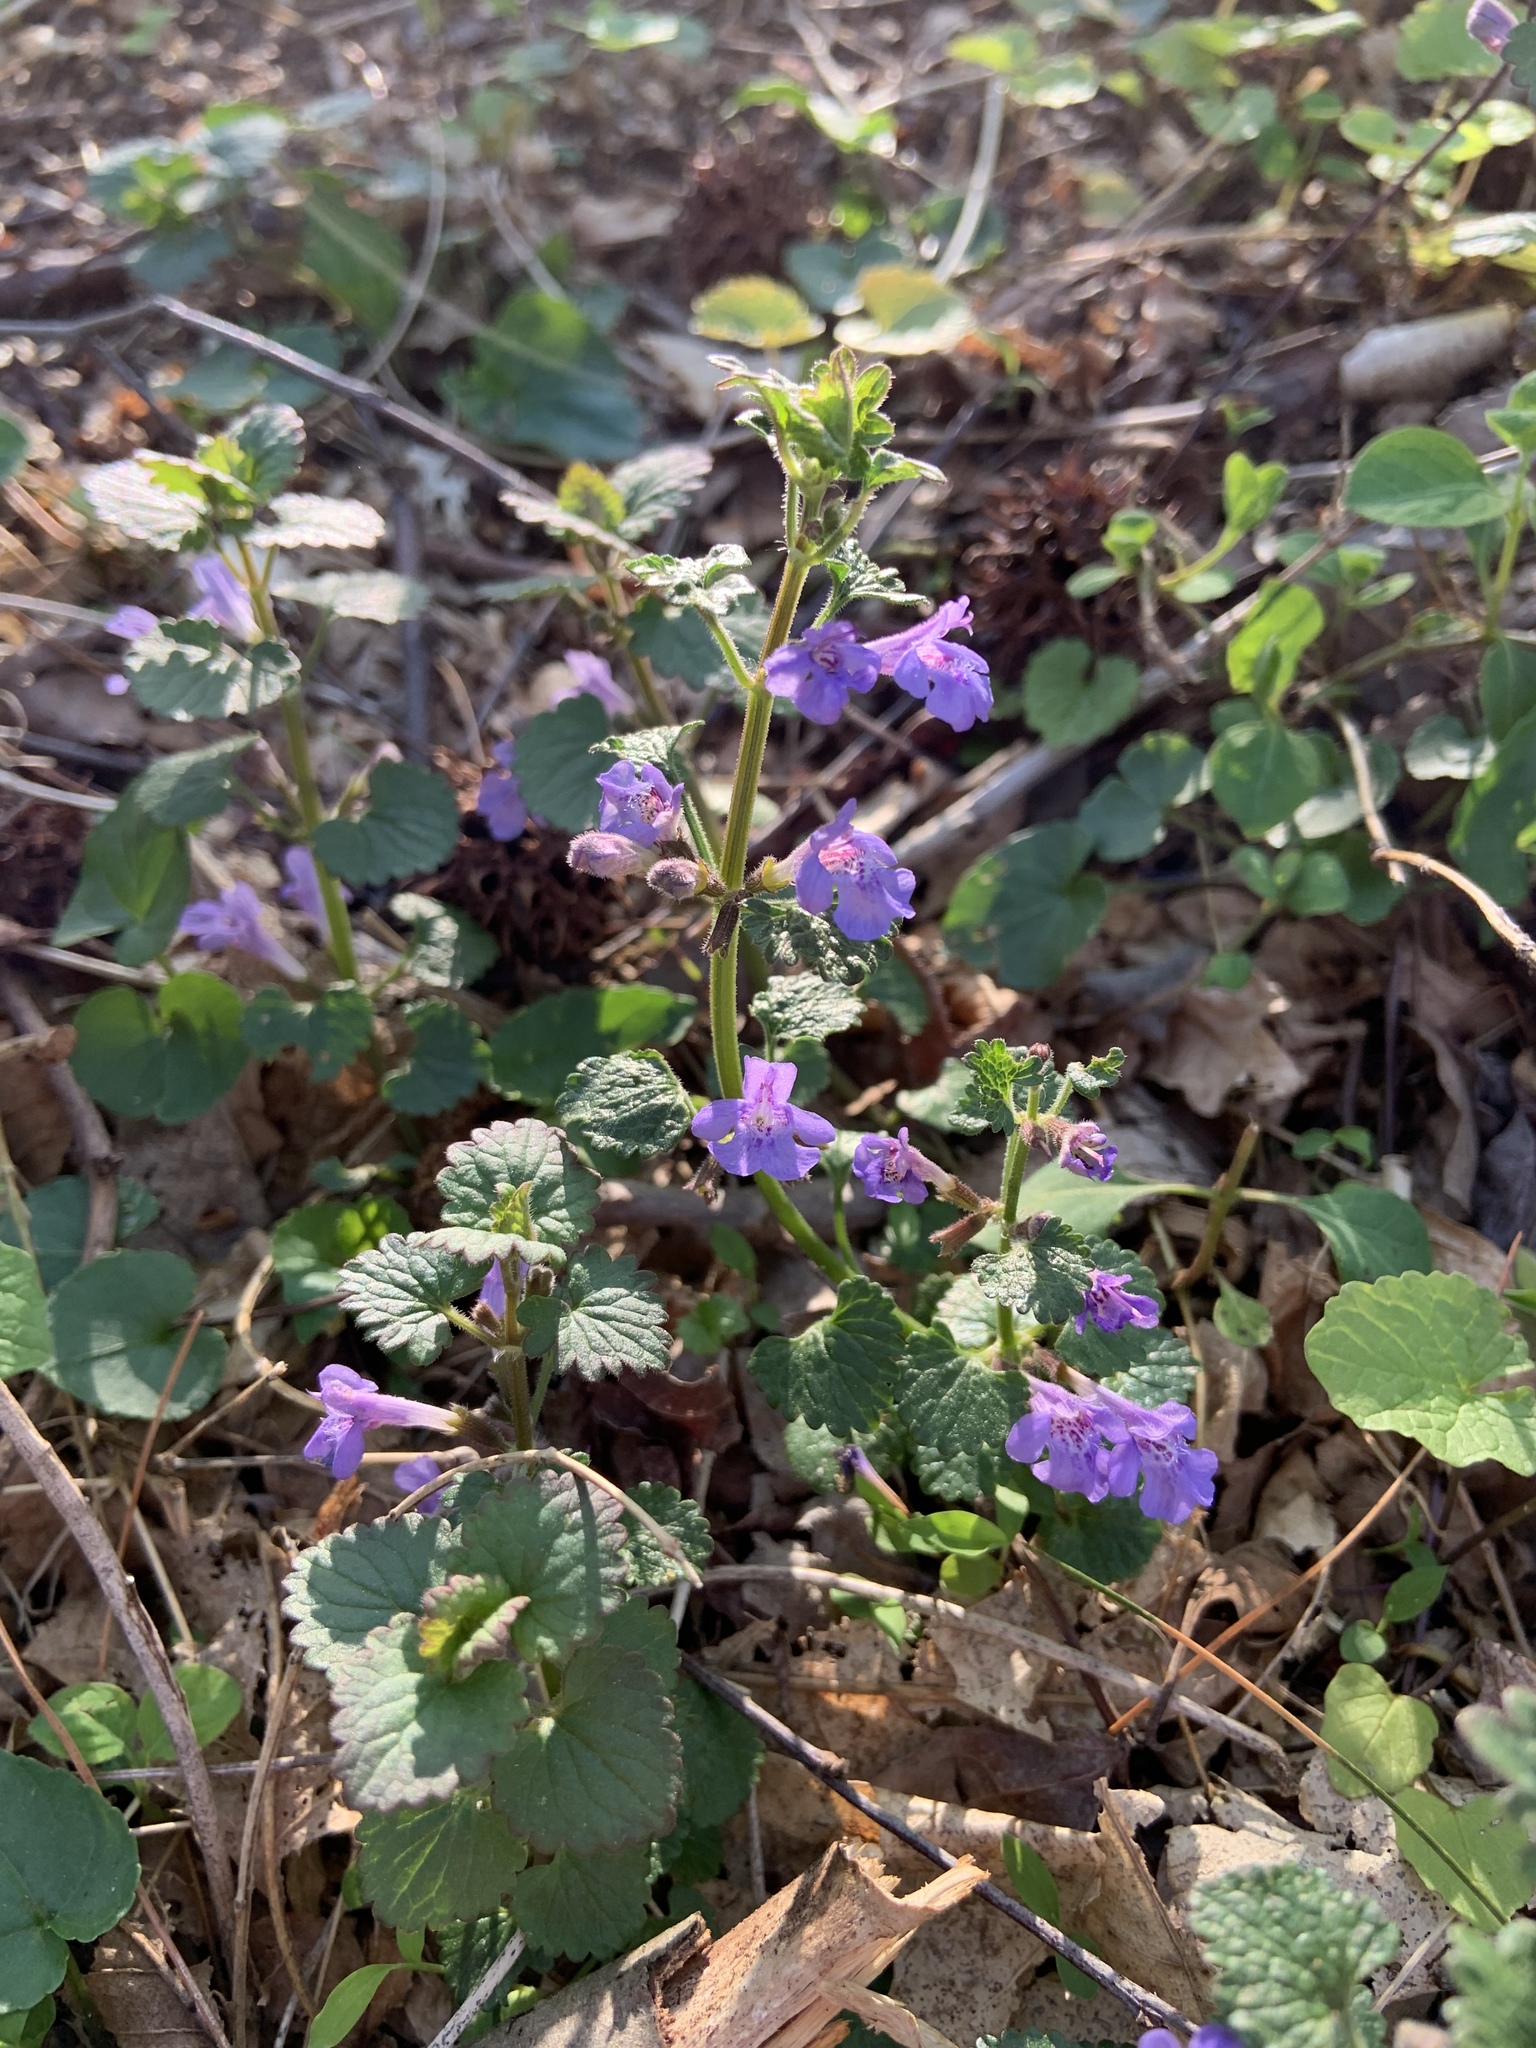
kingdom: Plantae
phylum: Tracheophyta
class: Magnoliopsida
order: Lamiales
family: Lamiaceae
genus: Glechoma
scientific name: Glechoma hederacea
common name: Ground ivy
